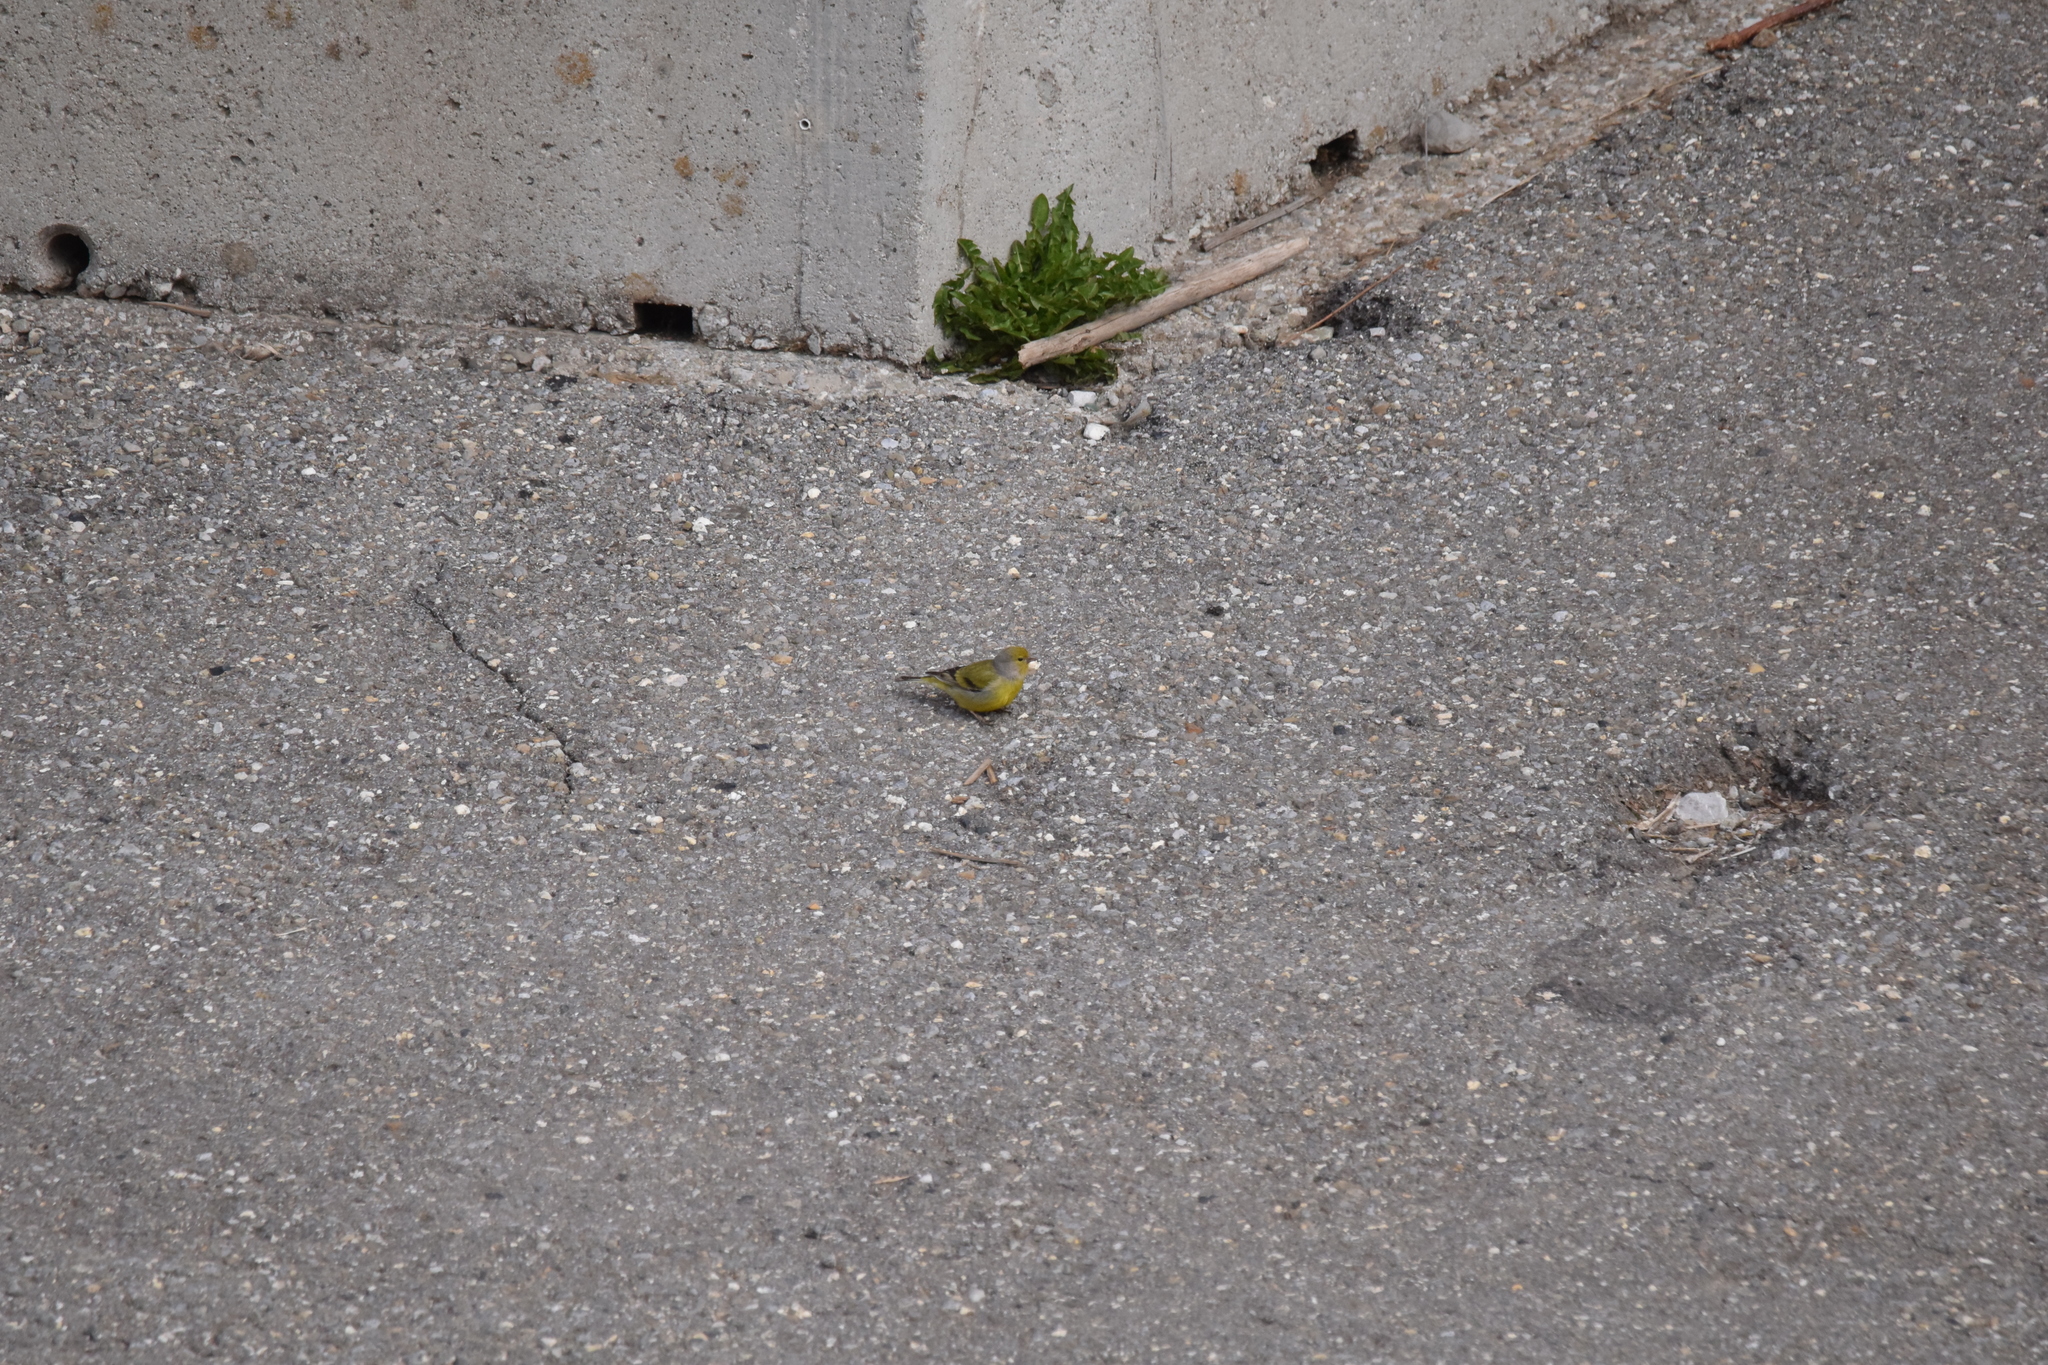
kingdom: Animalia
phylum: Chordata
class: Aves
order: Passeriformes
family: Fringillidae
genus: Carduelis
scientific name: Carduelis citrinella
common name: Citril finch
